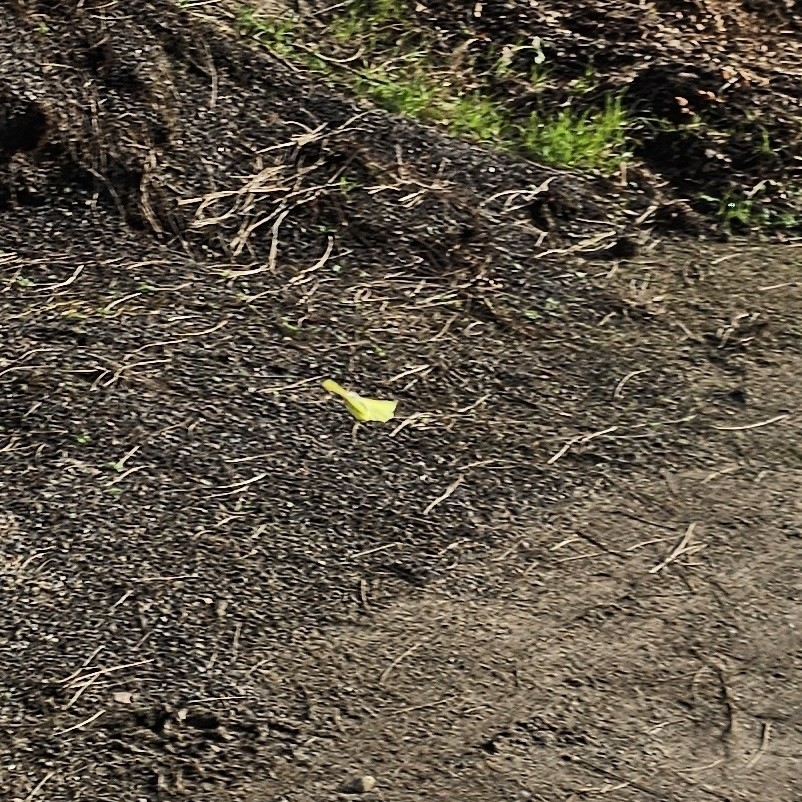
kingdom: Animalia
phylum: Arthropoda
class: Insecta
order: Lepidoptera
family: Pieridae
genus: Gonepteryx
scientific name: Gonepteryx rhamni
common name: Brimstone
